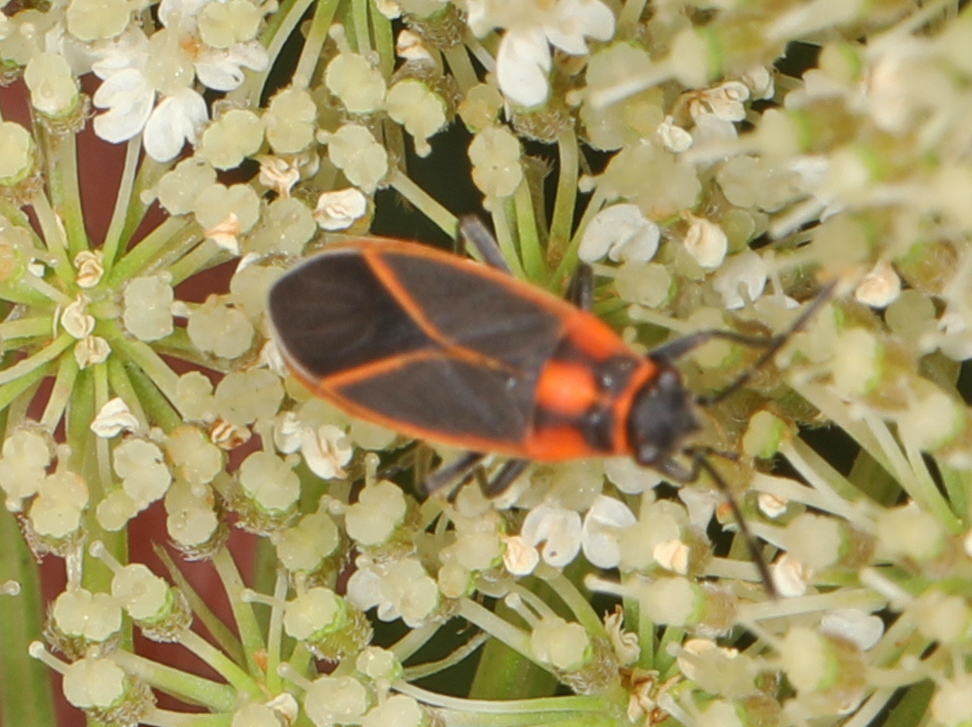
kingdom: Animalia
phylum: Arthropoda
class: Insecta
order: Hemiptera
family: Lygaeidae
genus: Ochrimnus
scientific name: Ochrimnus lineoloides
